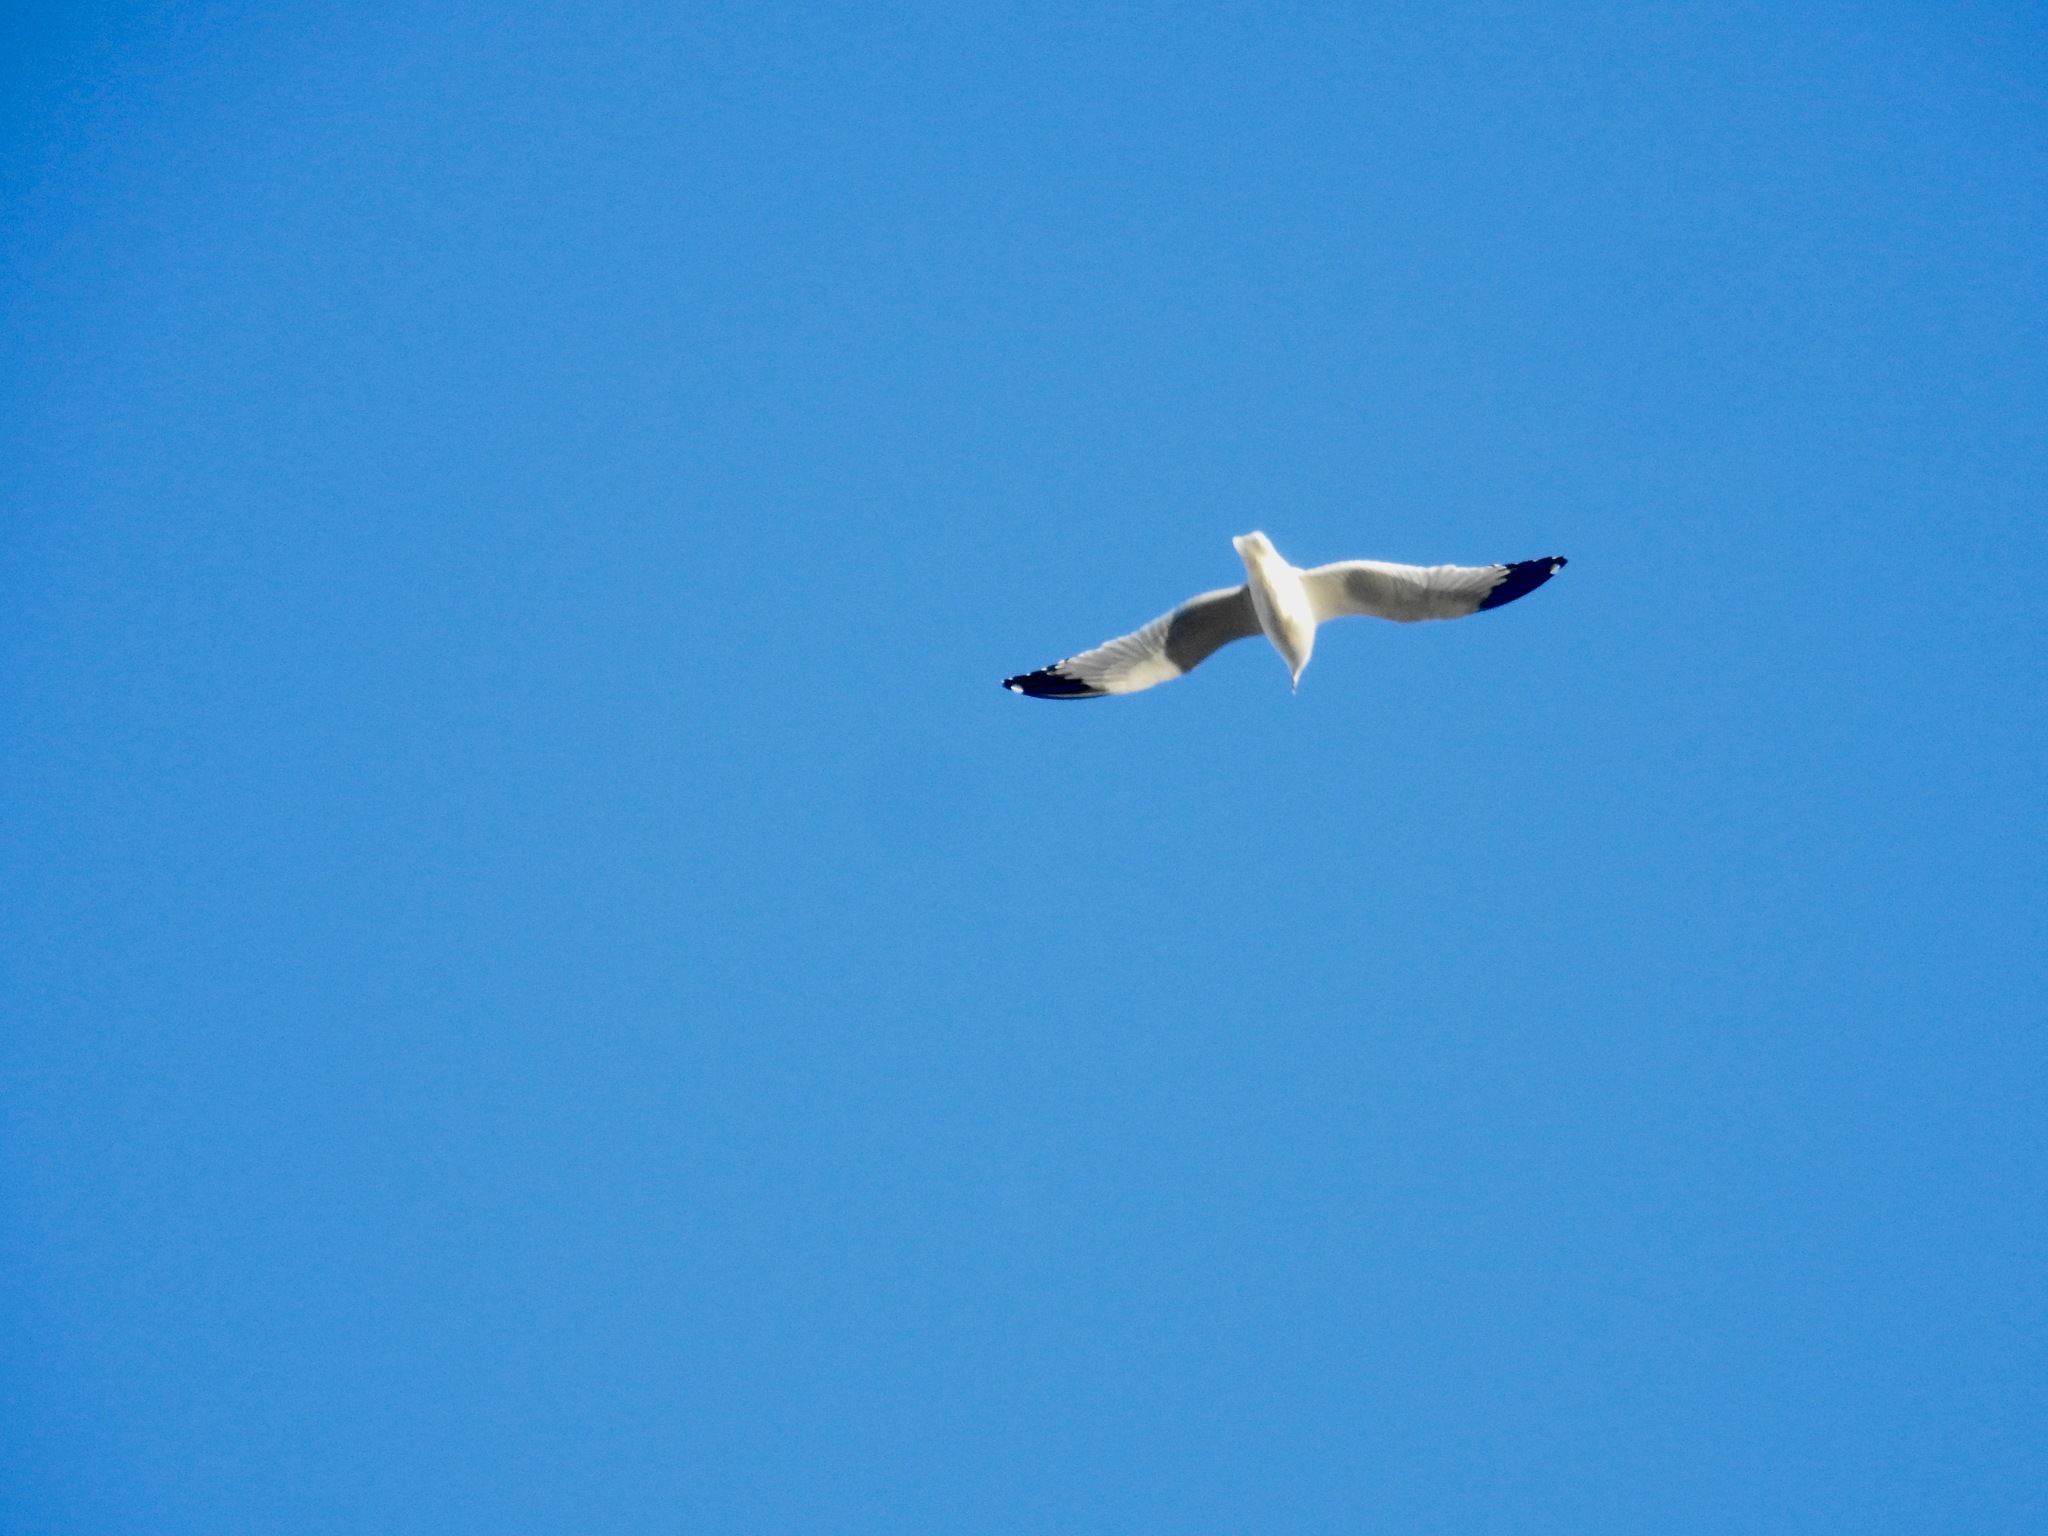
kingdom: Animalia
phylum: Chordata
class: Aves
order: Charadriiformes
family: Laridae
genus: Larus
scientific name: Larus brachyrhynchus
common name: Short-billed gull
